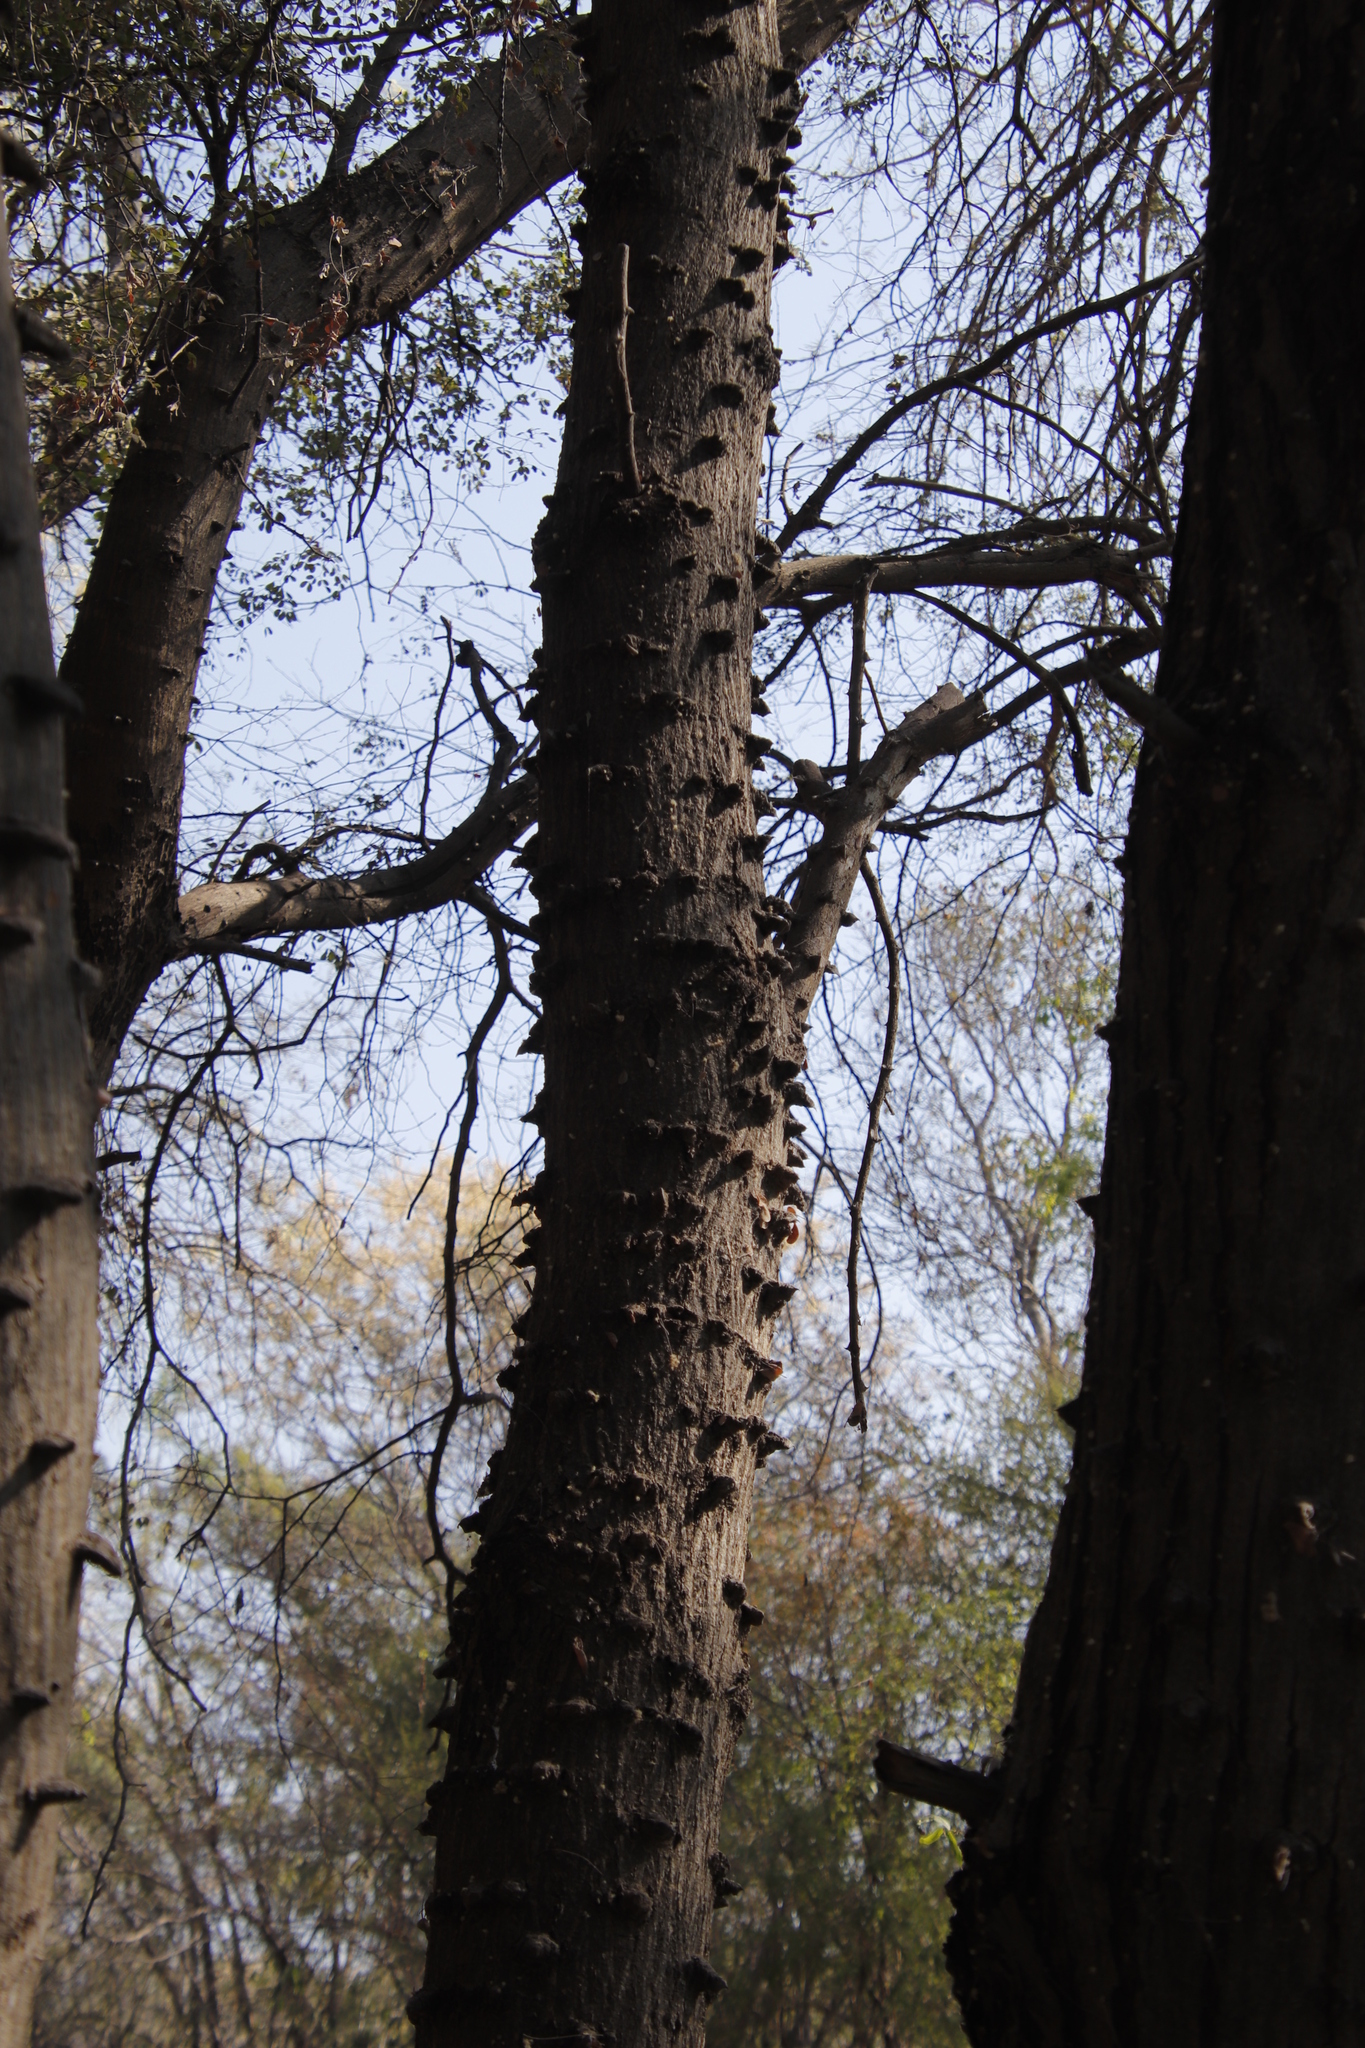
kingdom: Plantae
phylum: Tracheophyta
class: Magnoliopsida
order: Fabales
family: Fabaceae
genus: Senegalia
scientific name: Senegalia nigrescens
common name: Knobthorn
